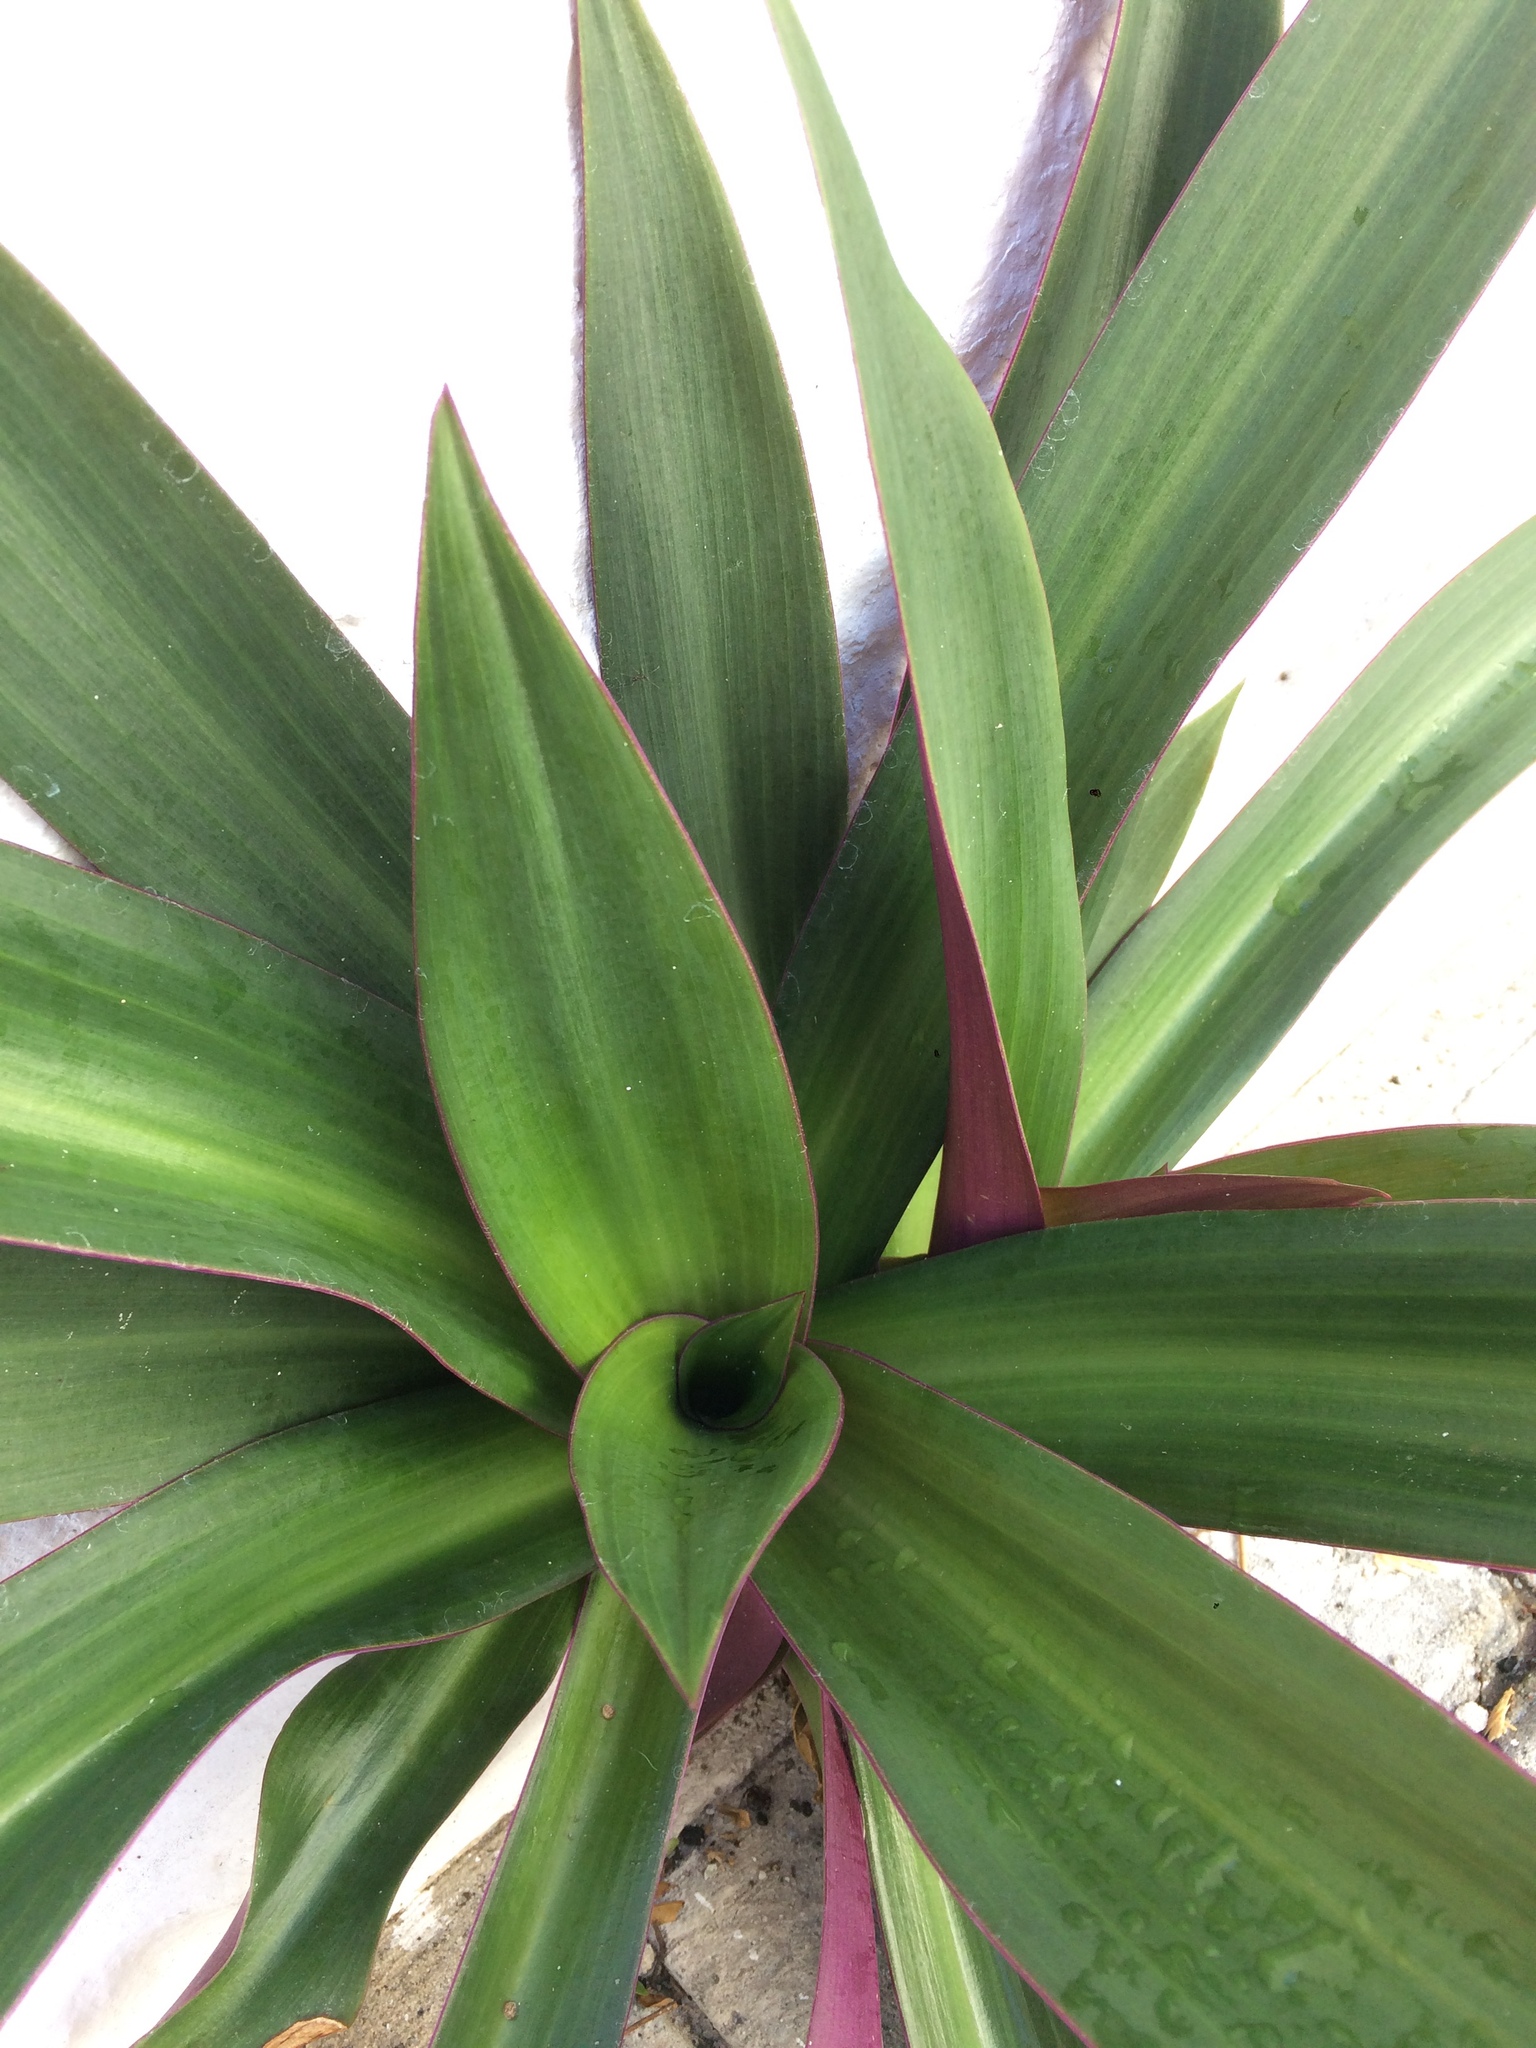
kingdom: Plantae
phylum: Tracheophyta
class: Liliopsida
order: Commelinales
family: Commelinaceae
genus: Tradescantia
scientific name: Tradescantia spathacea
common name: Boatlily
